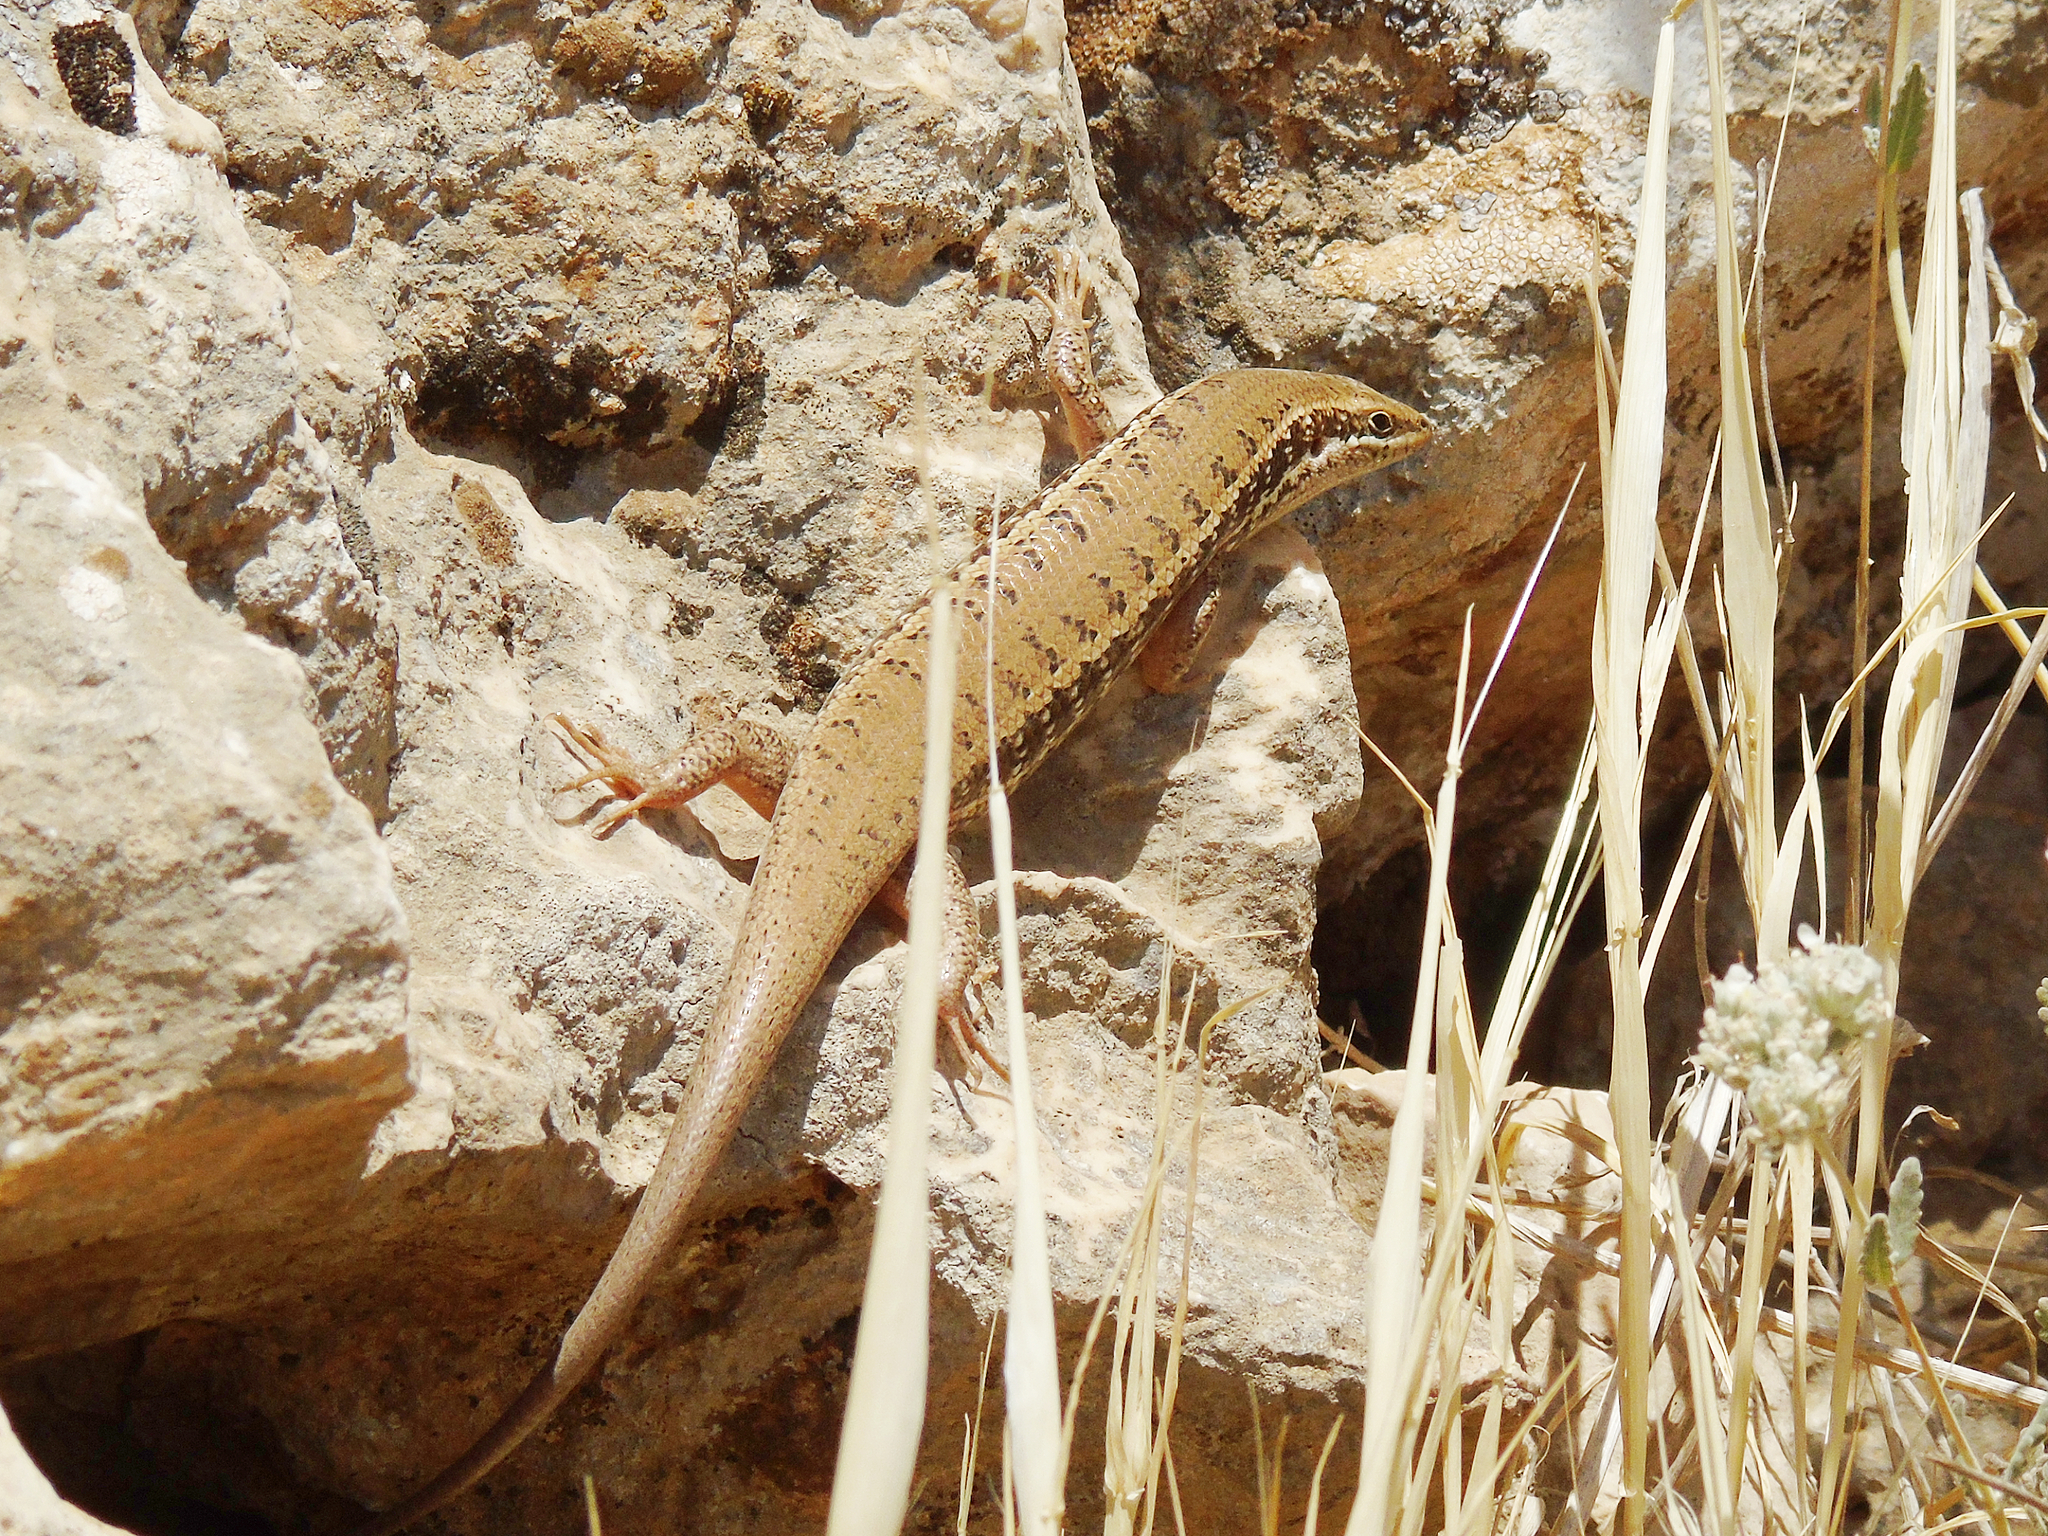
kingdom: Animalia
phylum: Chordata
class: Squamata
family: Scincidae
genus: Heremites
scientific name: Heremites auratus
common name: Golden grass mabuya
